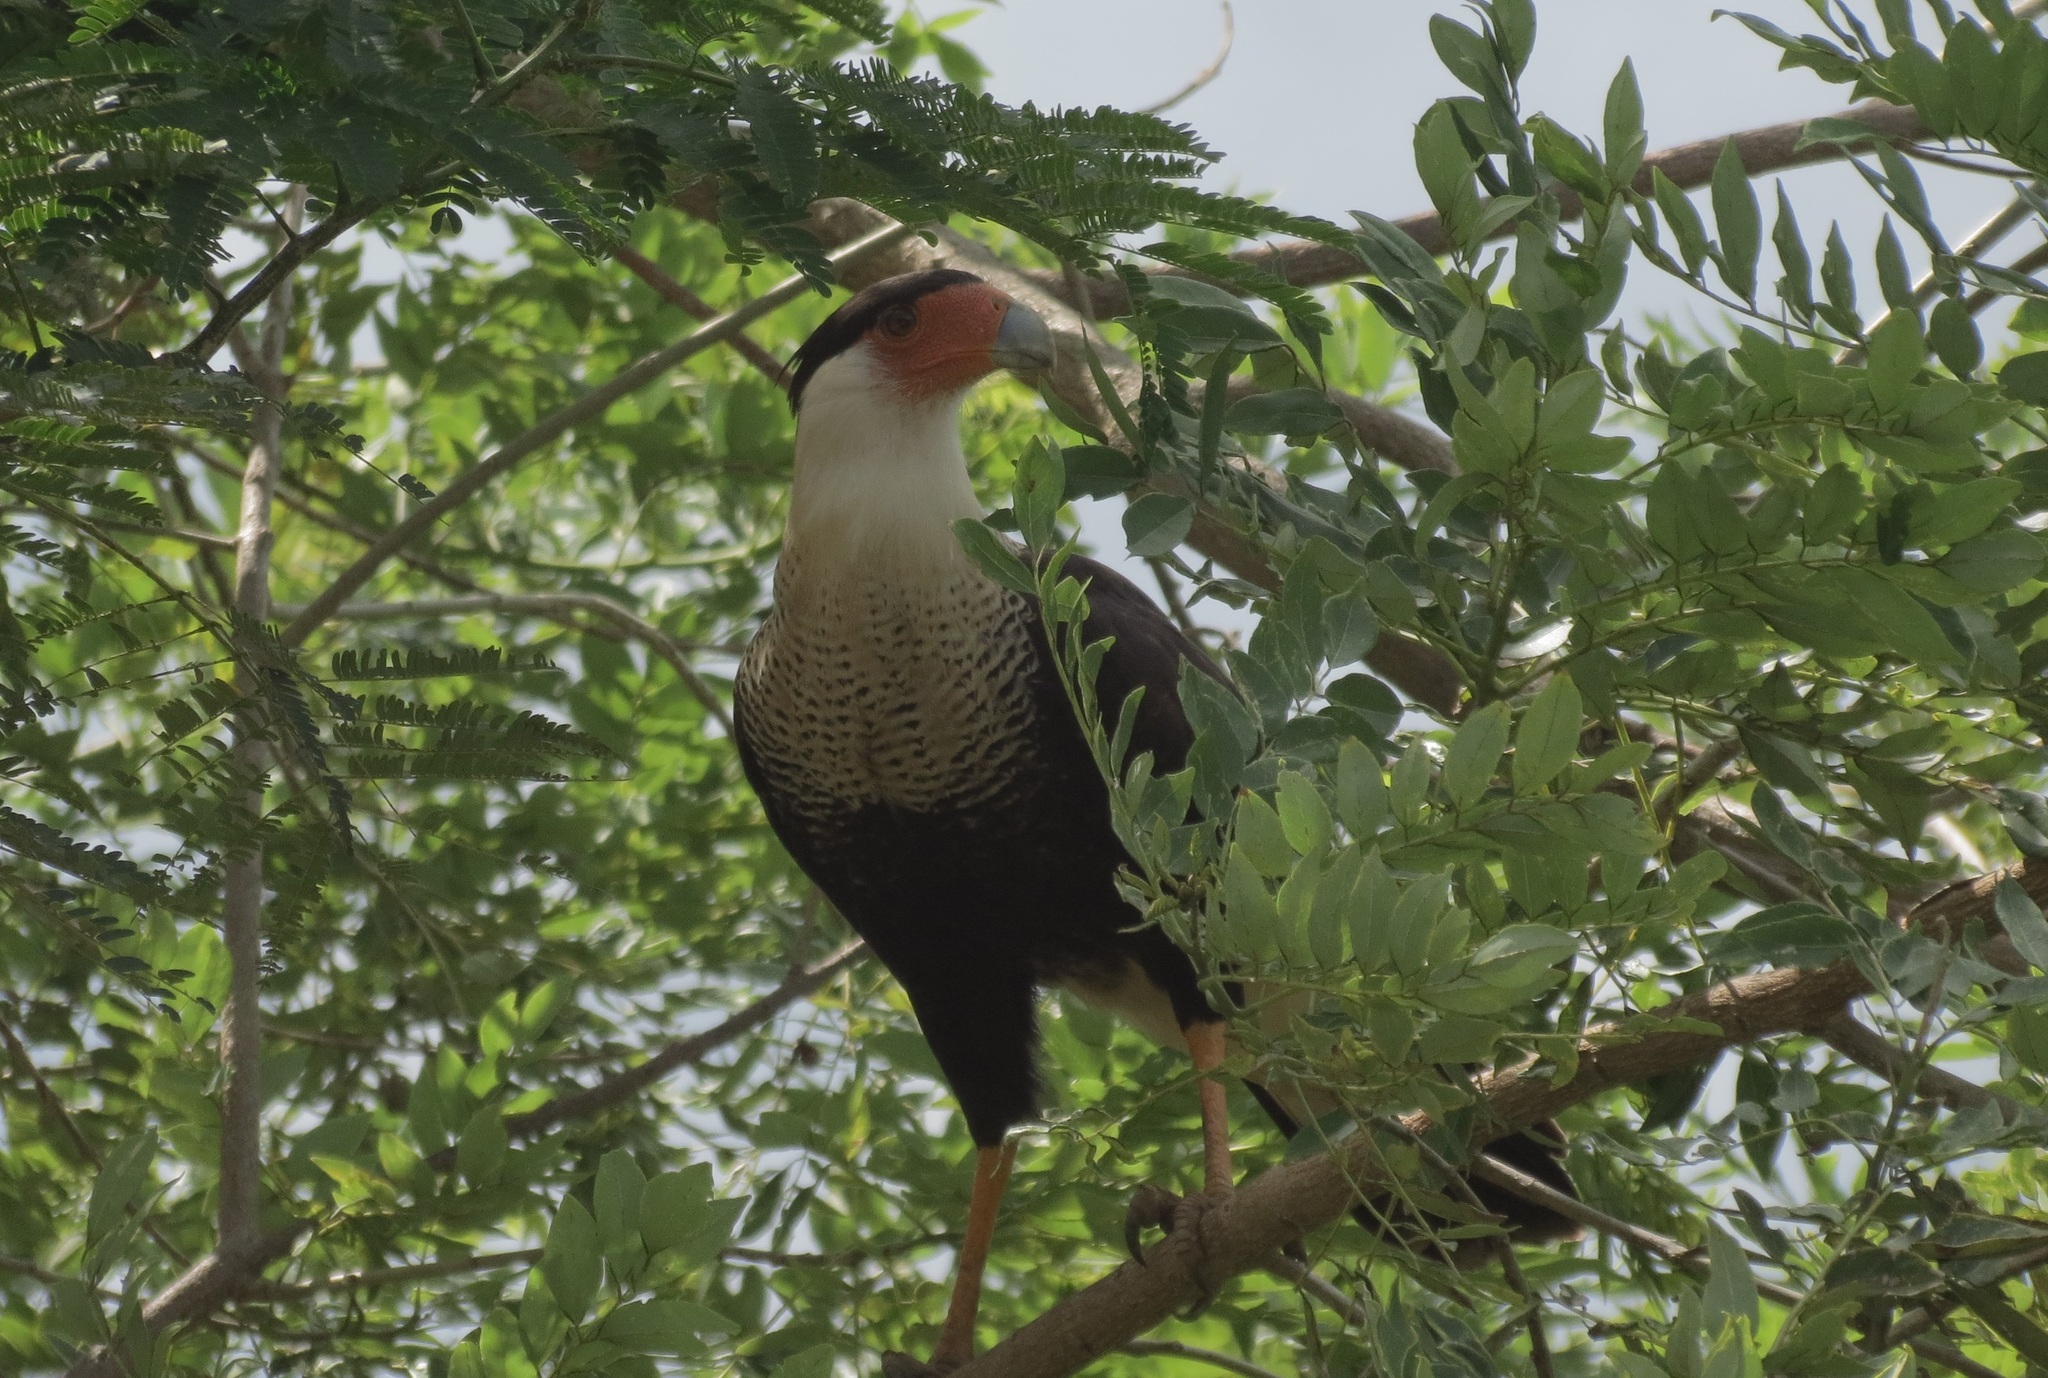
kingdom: Animalia
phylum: Chordata
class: Aves
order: Falconiformes
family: Falconidae
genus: Caracara
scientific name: Caracara plancus
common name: Southern caracara
